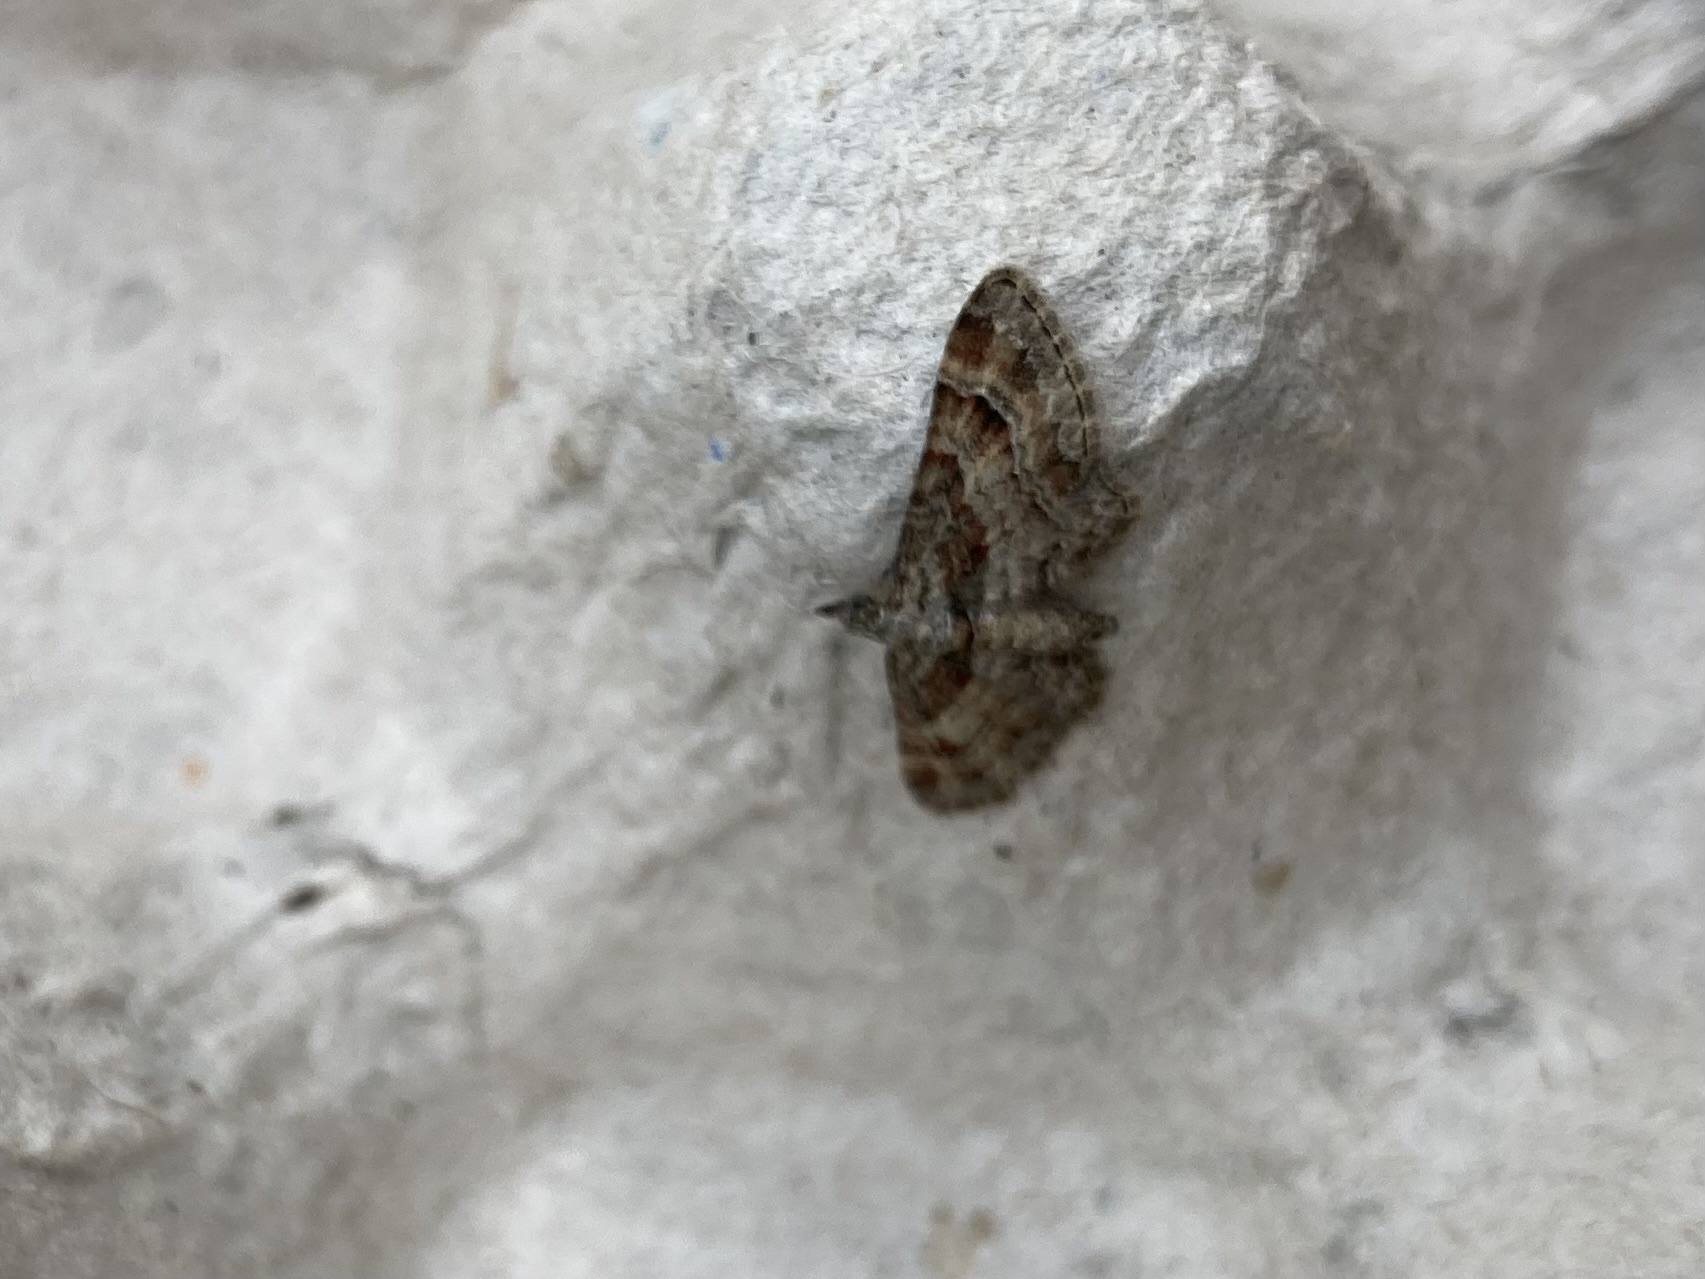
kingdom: Animalia
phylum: Arthropoda
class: Insecta
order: Lepidoptera
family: Geometridae
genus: Gymnoscelis
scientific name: Gymnoscelis rufifasciata
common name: Double-striped pug
